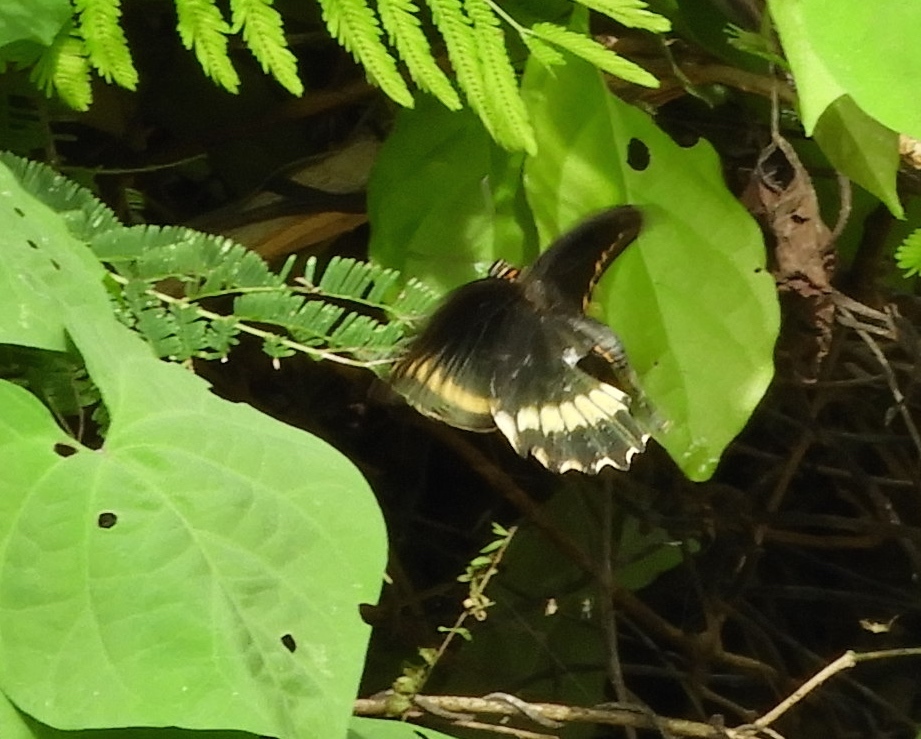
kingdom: Animalia
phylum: Arthropoda
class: Insecta
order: Lepidoptera
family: Papilionidae
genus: Battus
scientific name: Battus polydamas
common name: Polydamas swallowtail
